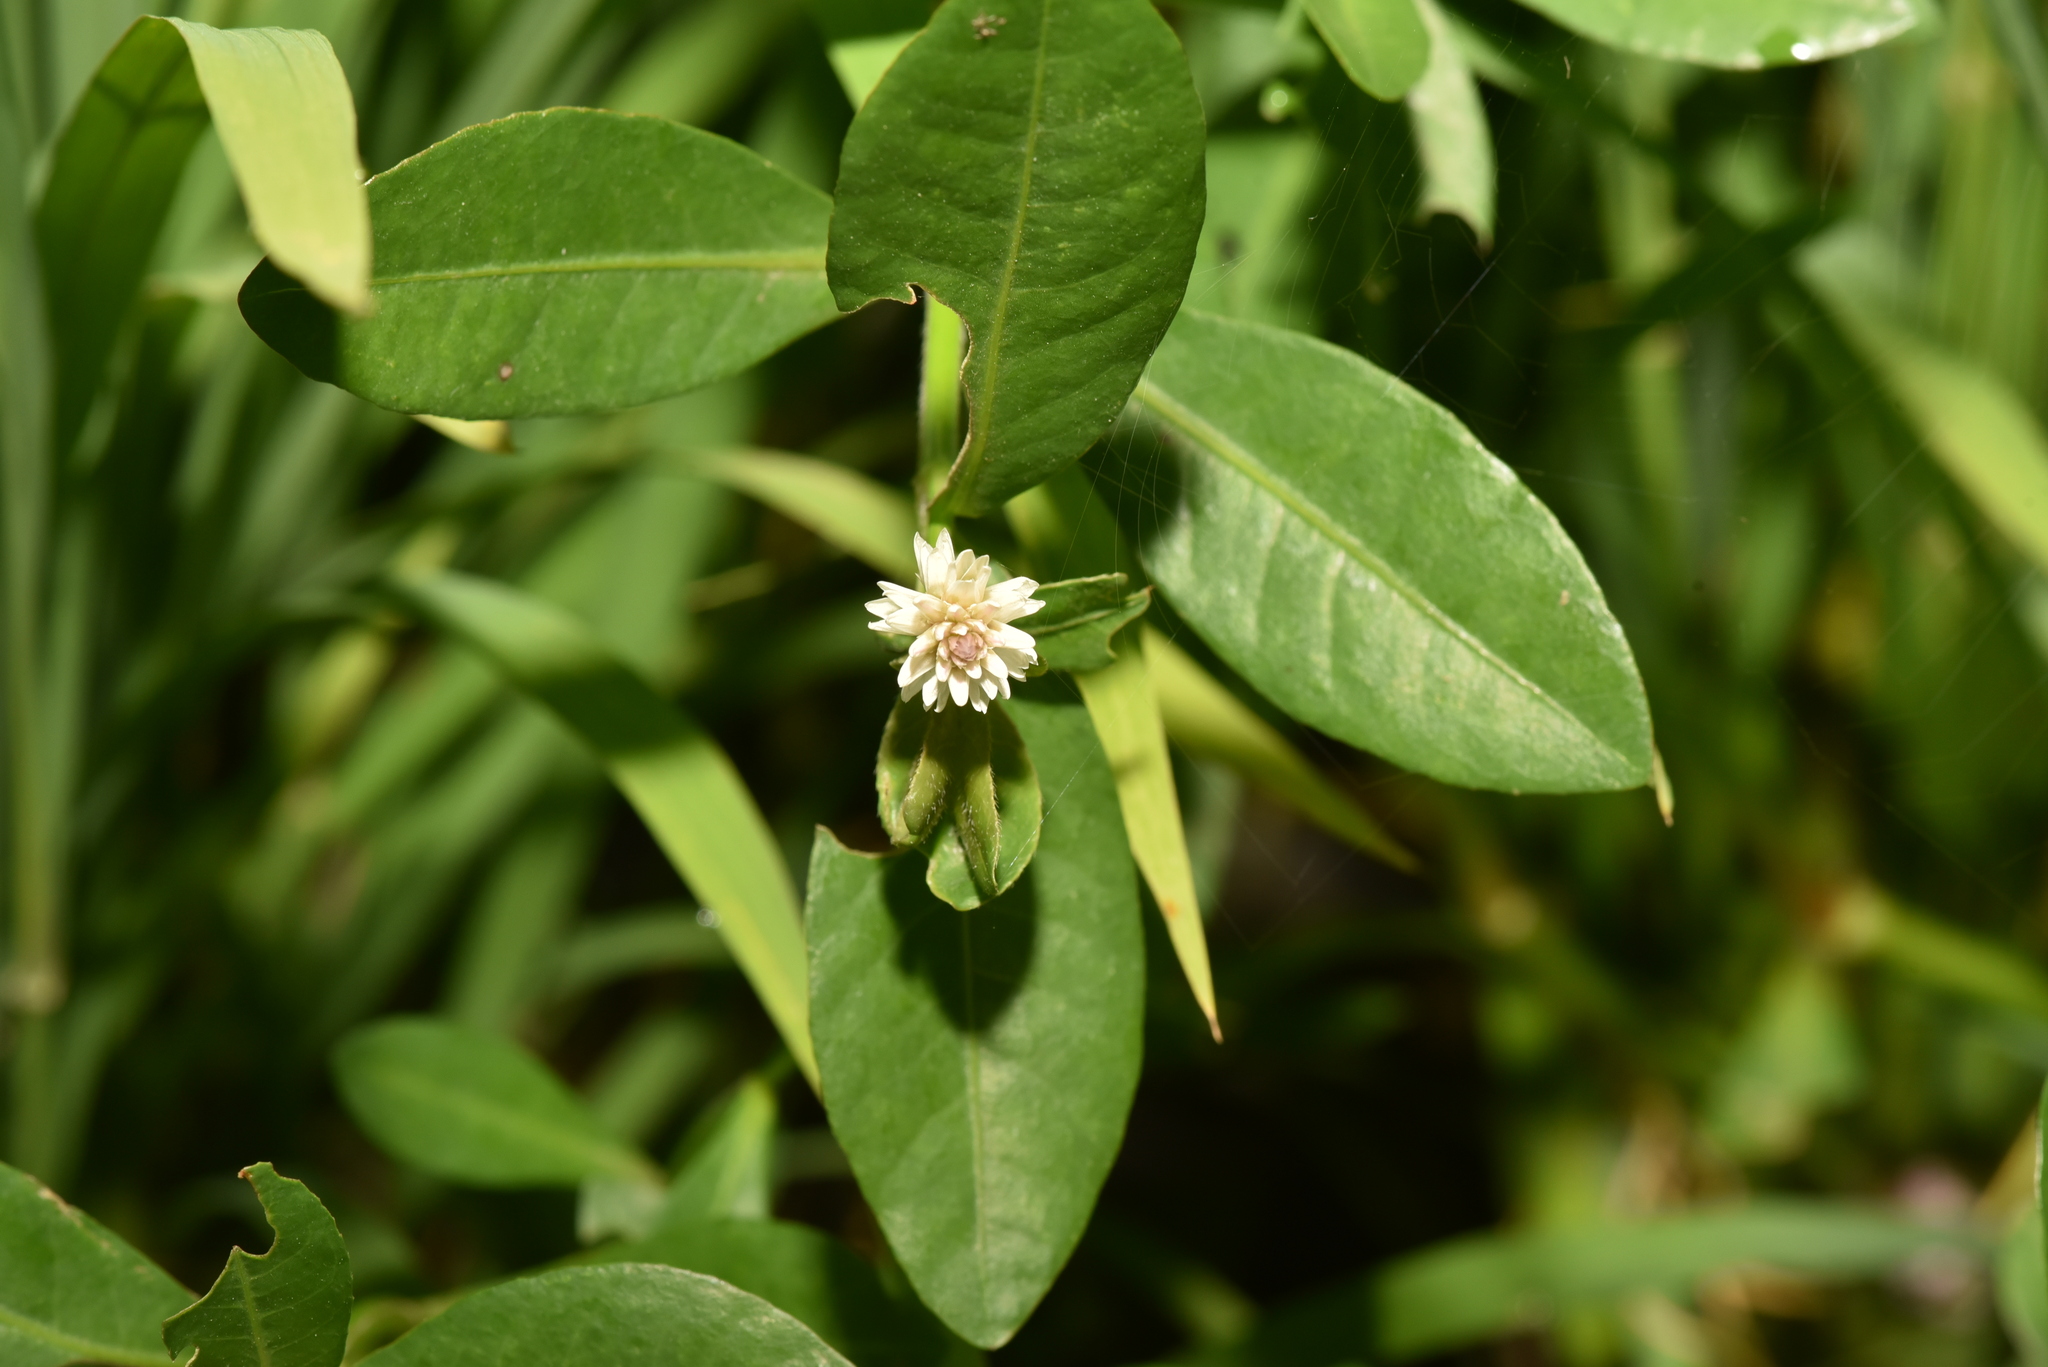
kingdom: Plantae
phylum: Tracheophyta
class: Magnoliopsida
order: Caryophyllales
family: Amaranthaceae
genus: Alternanthera
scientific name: Alternanthera philoxeroides
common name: Alligatorweed
